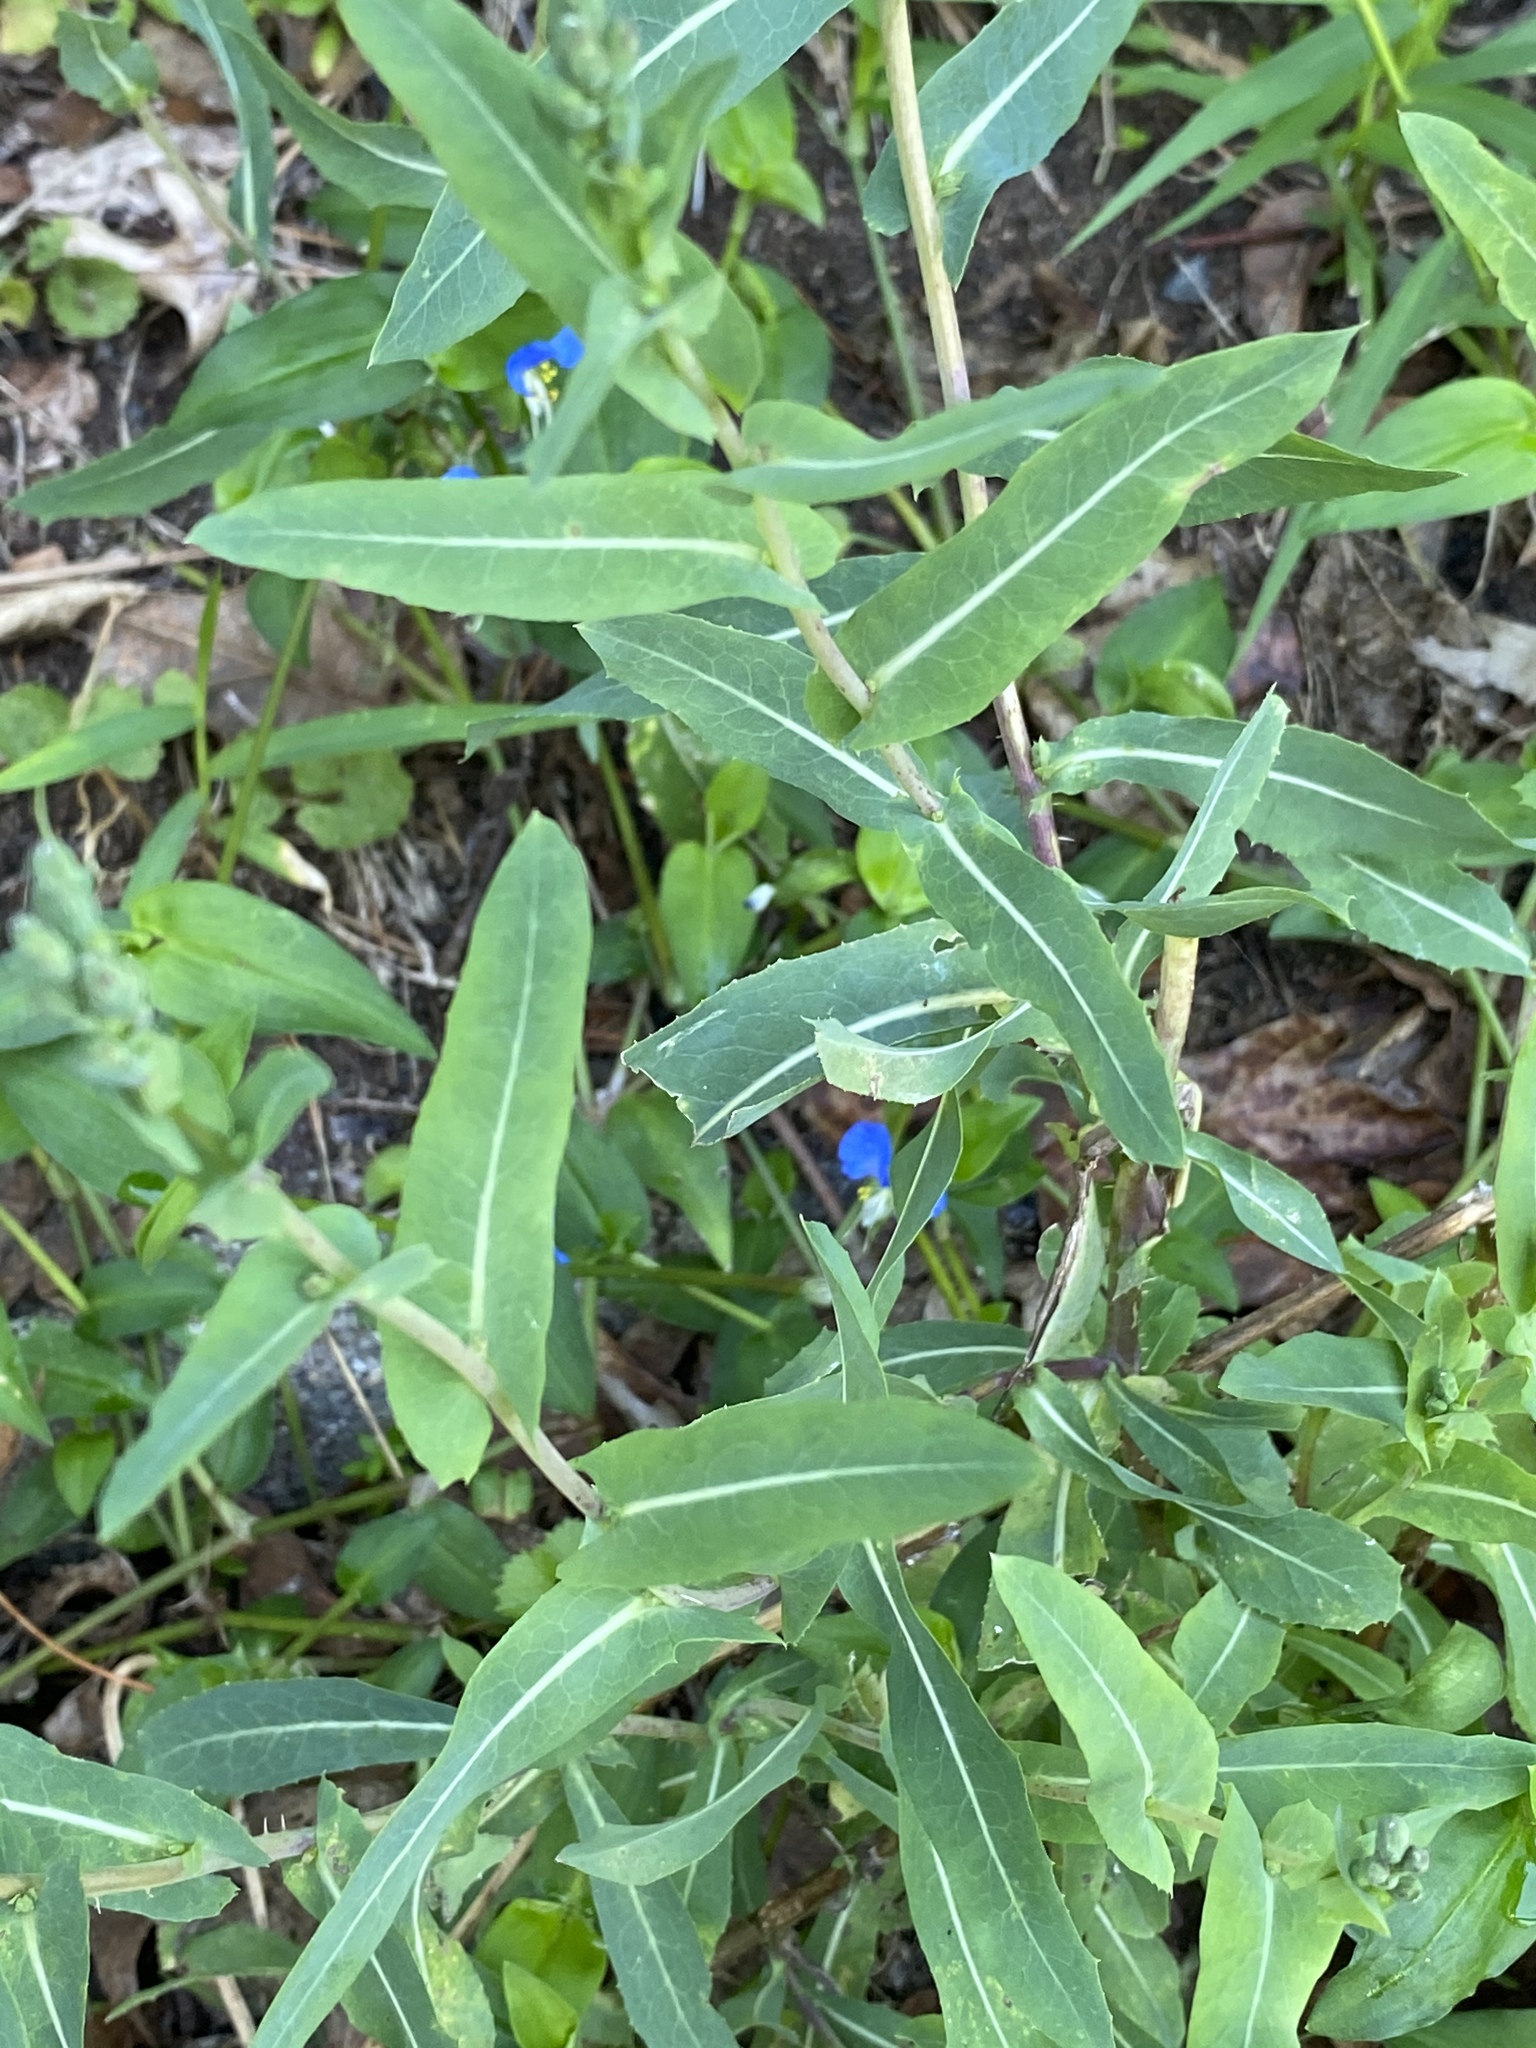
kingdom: Plantae
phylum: Tracheophyta
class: Magnoliopsida
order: Asterales
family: Asteraceae
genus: Lactuca
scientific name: Lactuca serriola
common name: Prickly lettuce
